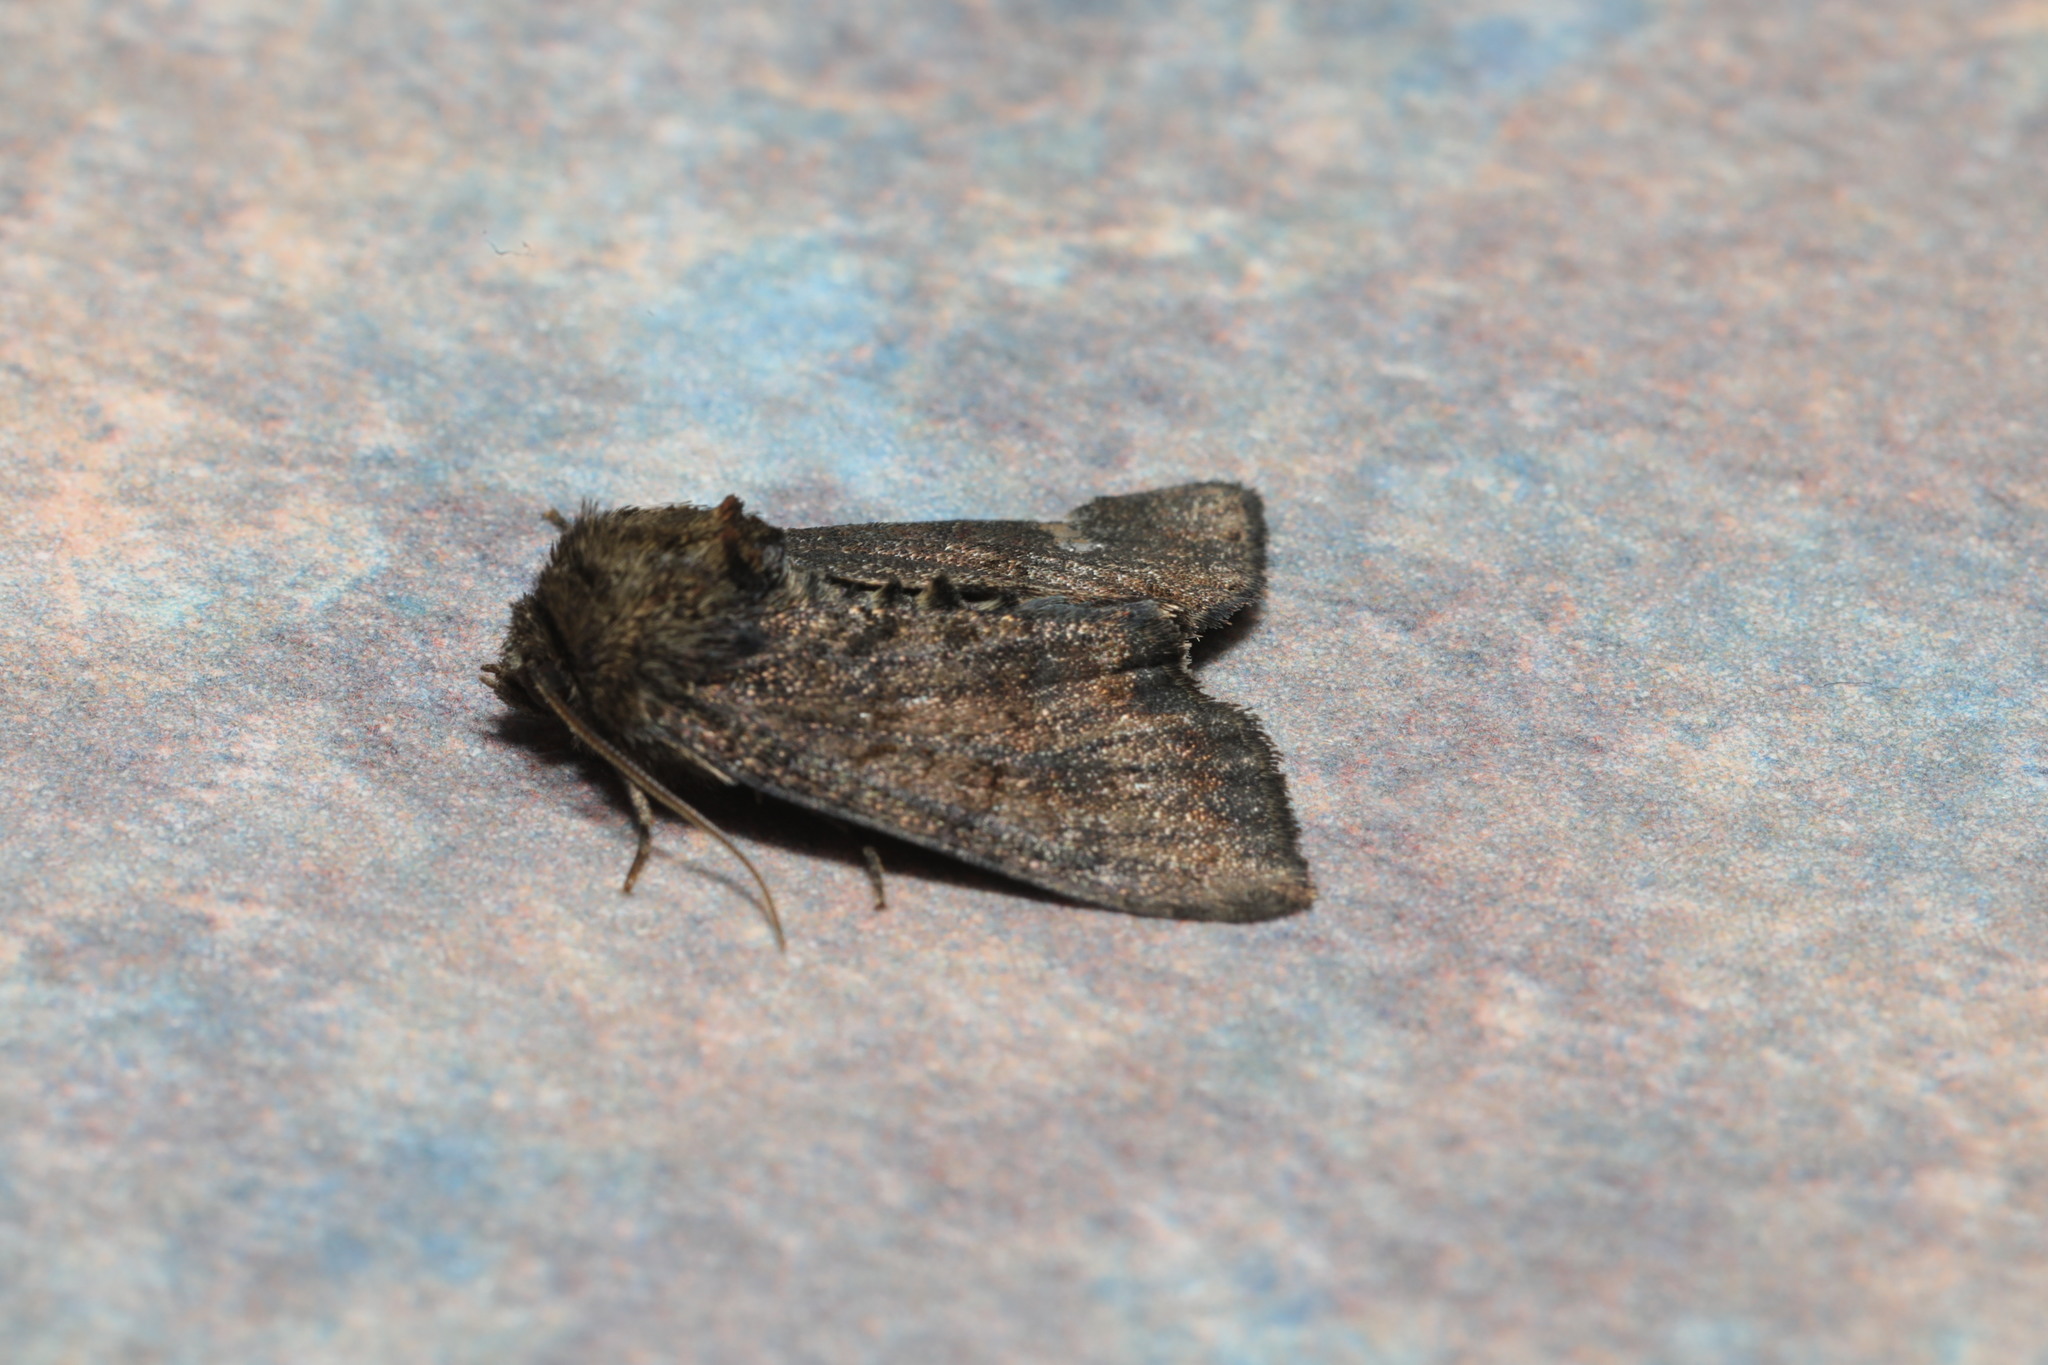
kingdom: Animalia
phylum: Arthropoda
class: Insecta
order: Lepidoptera
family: Noctuidae
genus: Oligia
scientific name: Oligia
